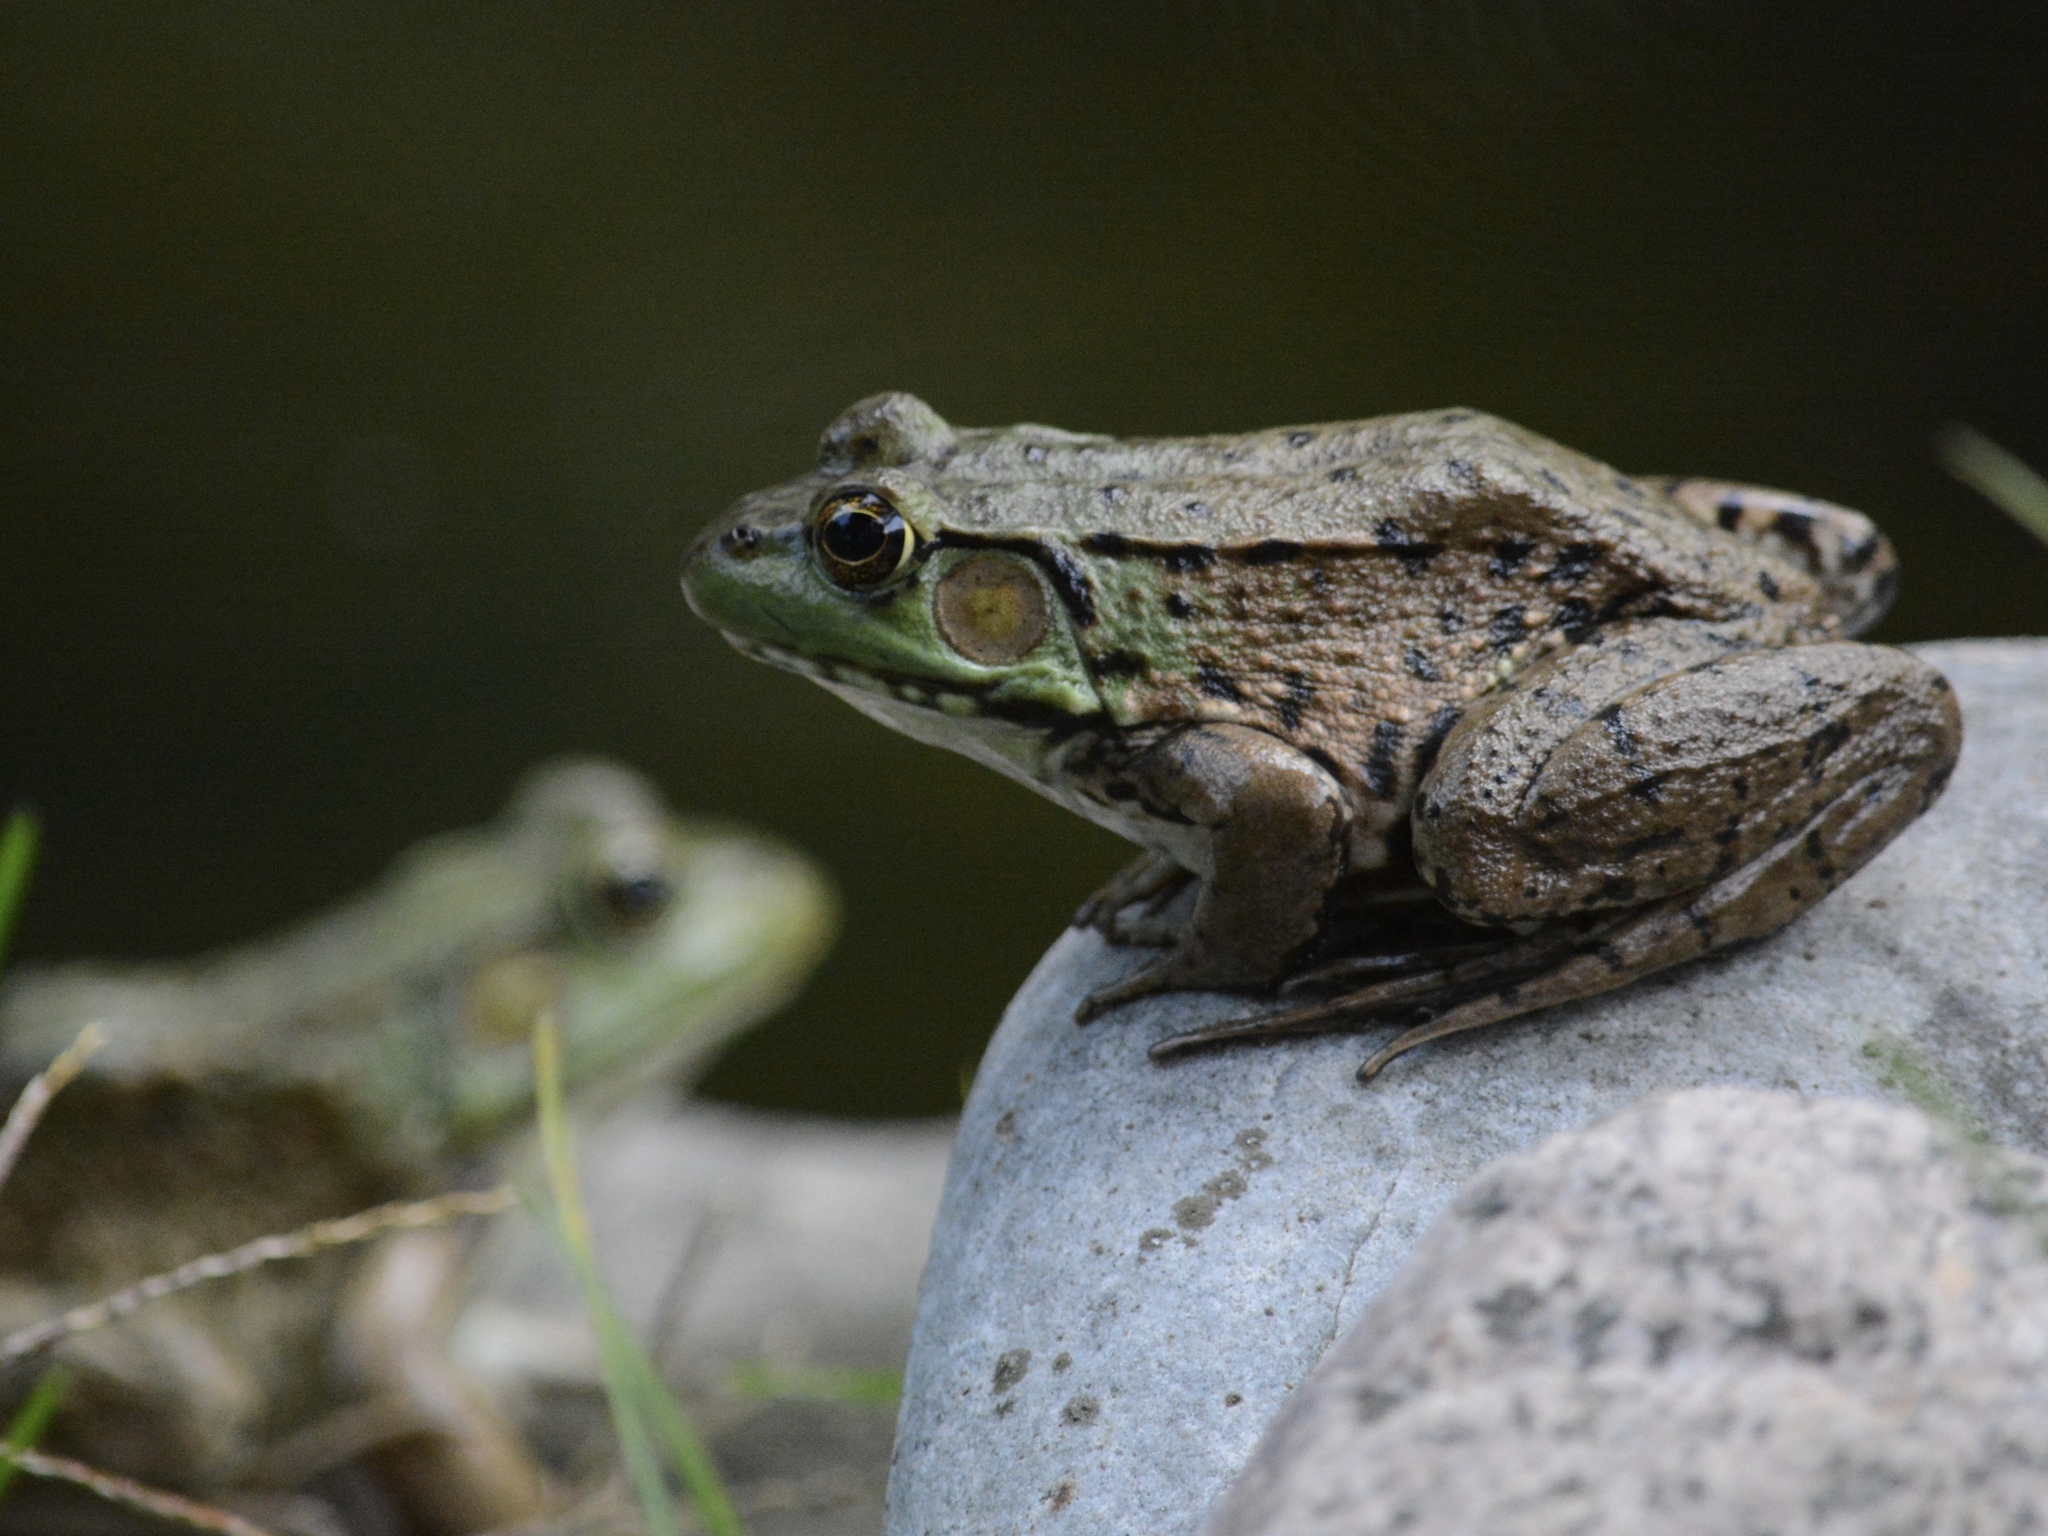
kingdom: Animalia
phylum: Chordata
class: Amphibia
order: Anura
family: Ranidae
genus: Lithobates
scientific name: Lithobates clamitans
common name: Green frog
